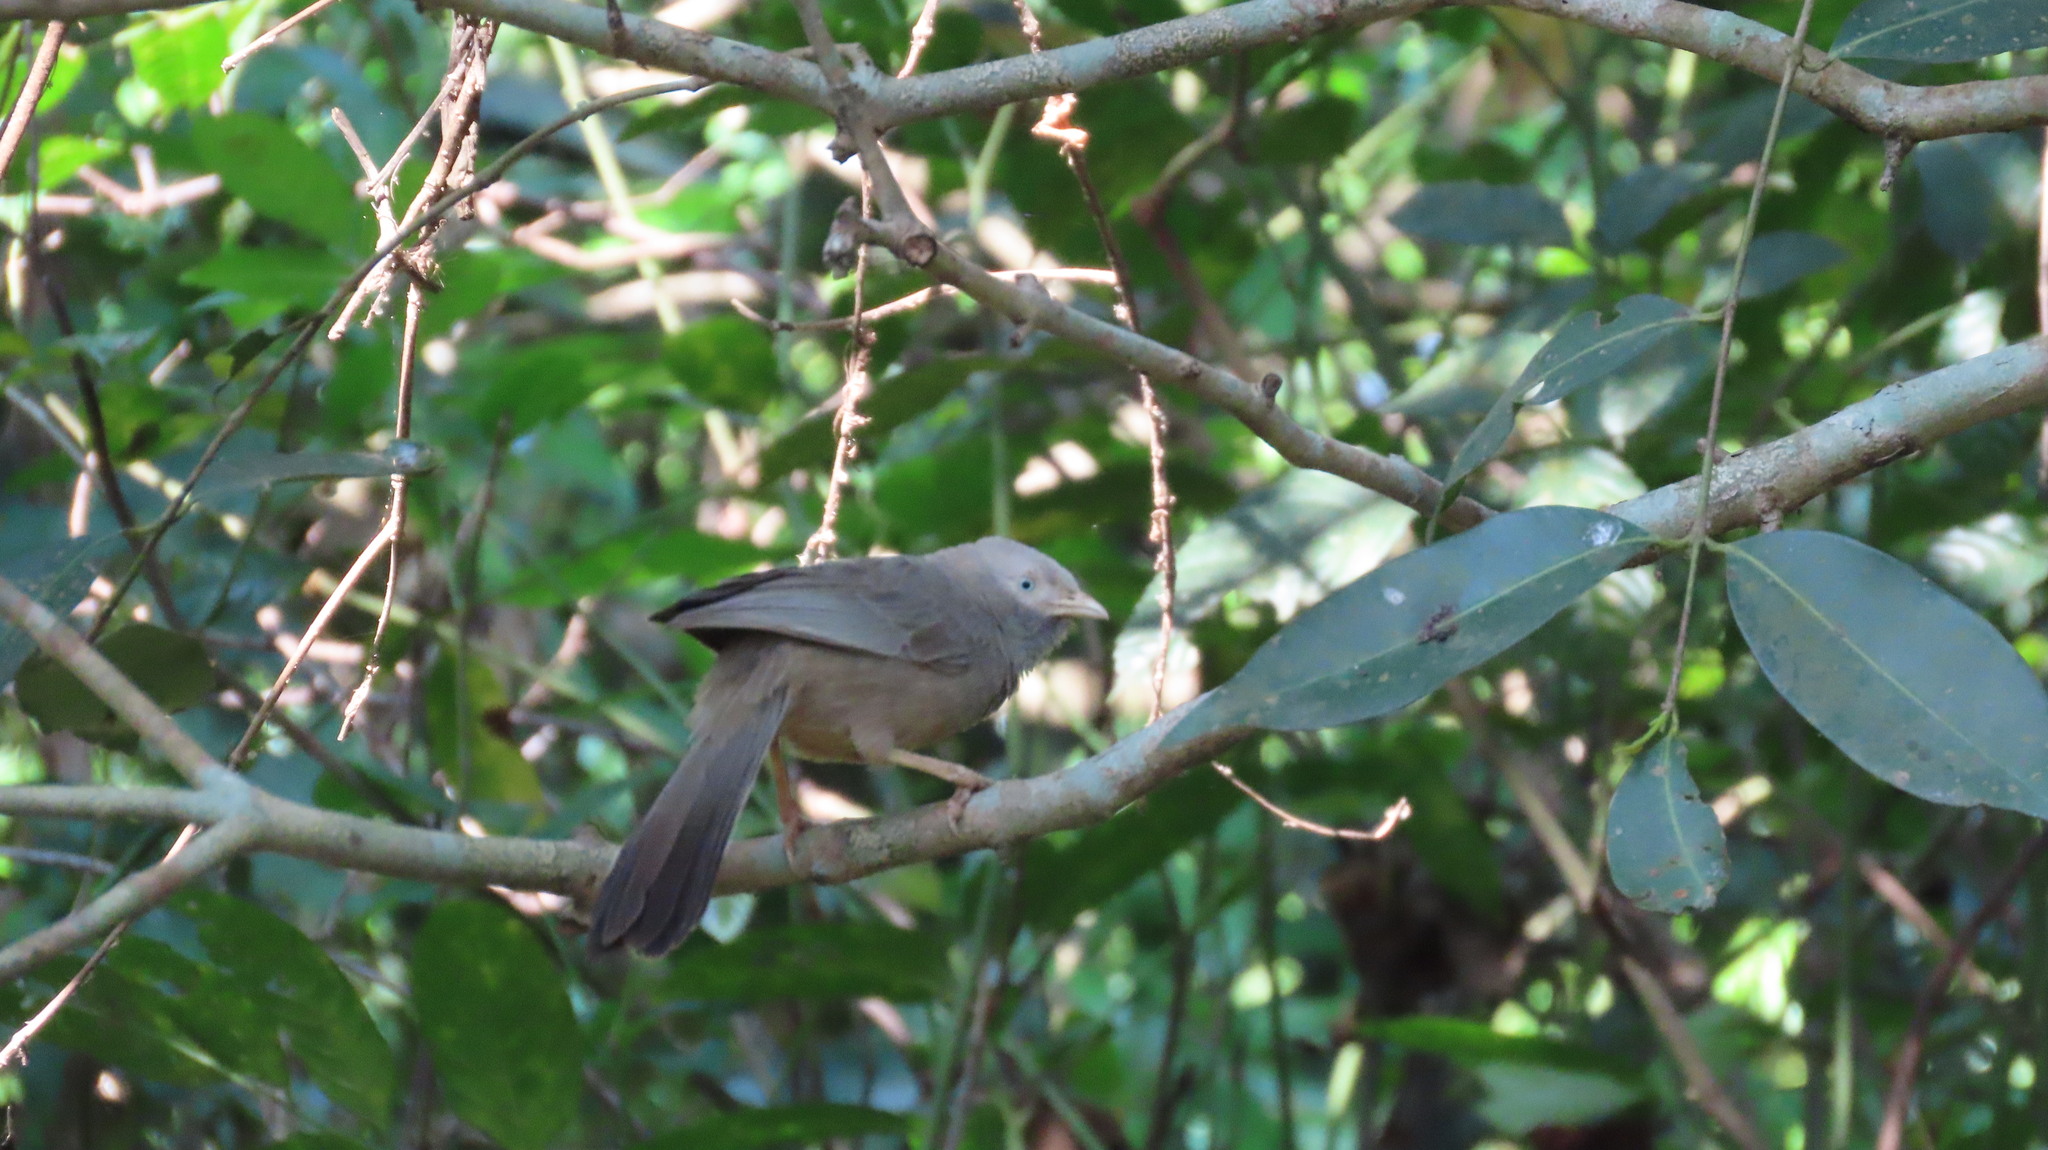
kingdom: Animalia
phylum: Chordata
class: Aves
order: Passeriformes
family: Leiothrichidae
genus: Turdoides
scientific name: Turdoides affinis
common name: Yellow-billed babbler
